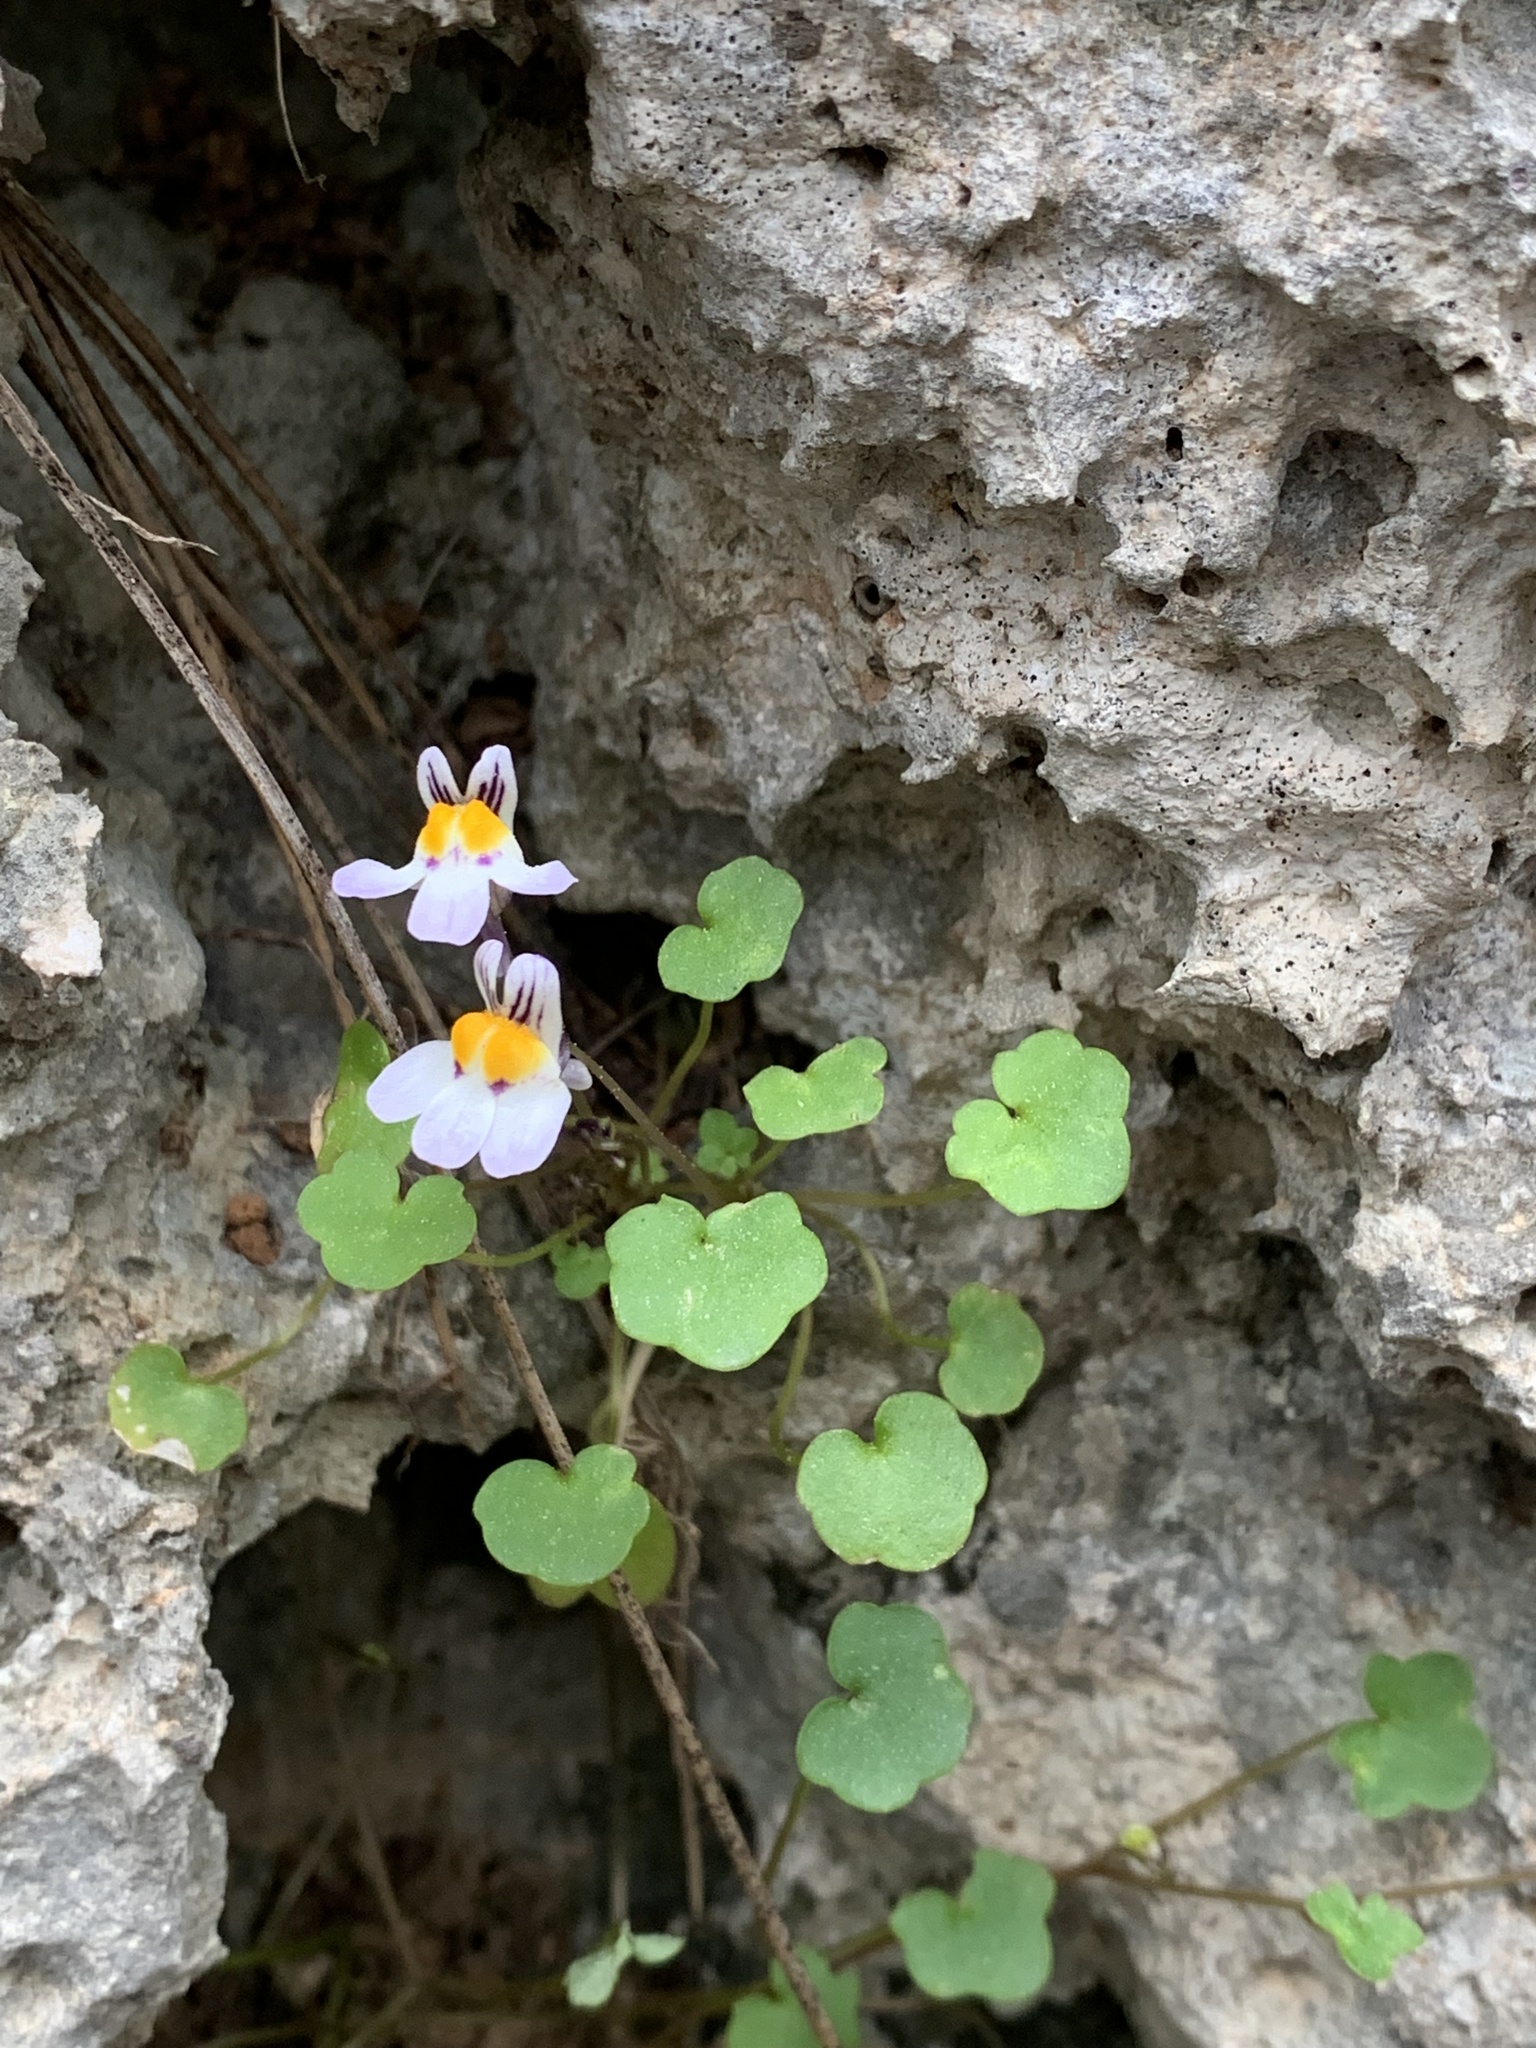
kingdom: Plantae
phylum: Tracheophyta
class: Magnoliopsida
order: Lamiales
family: Plantaginaceae
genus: Cymbalaria
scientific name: Cymbalaria longipes
